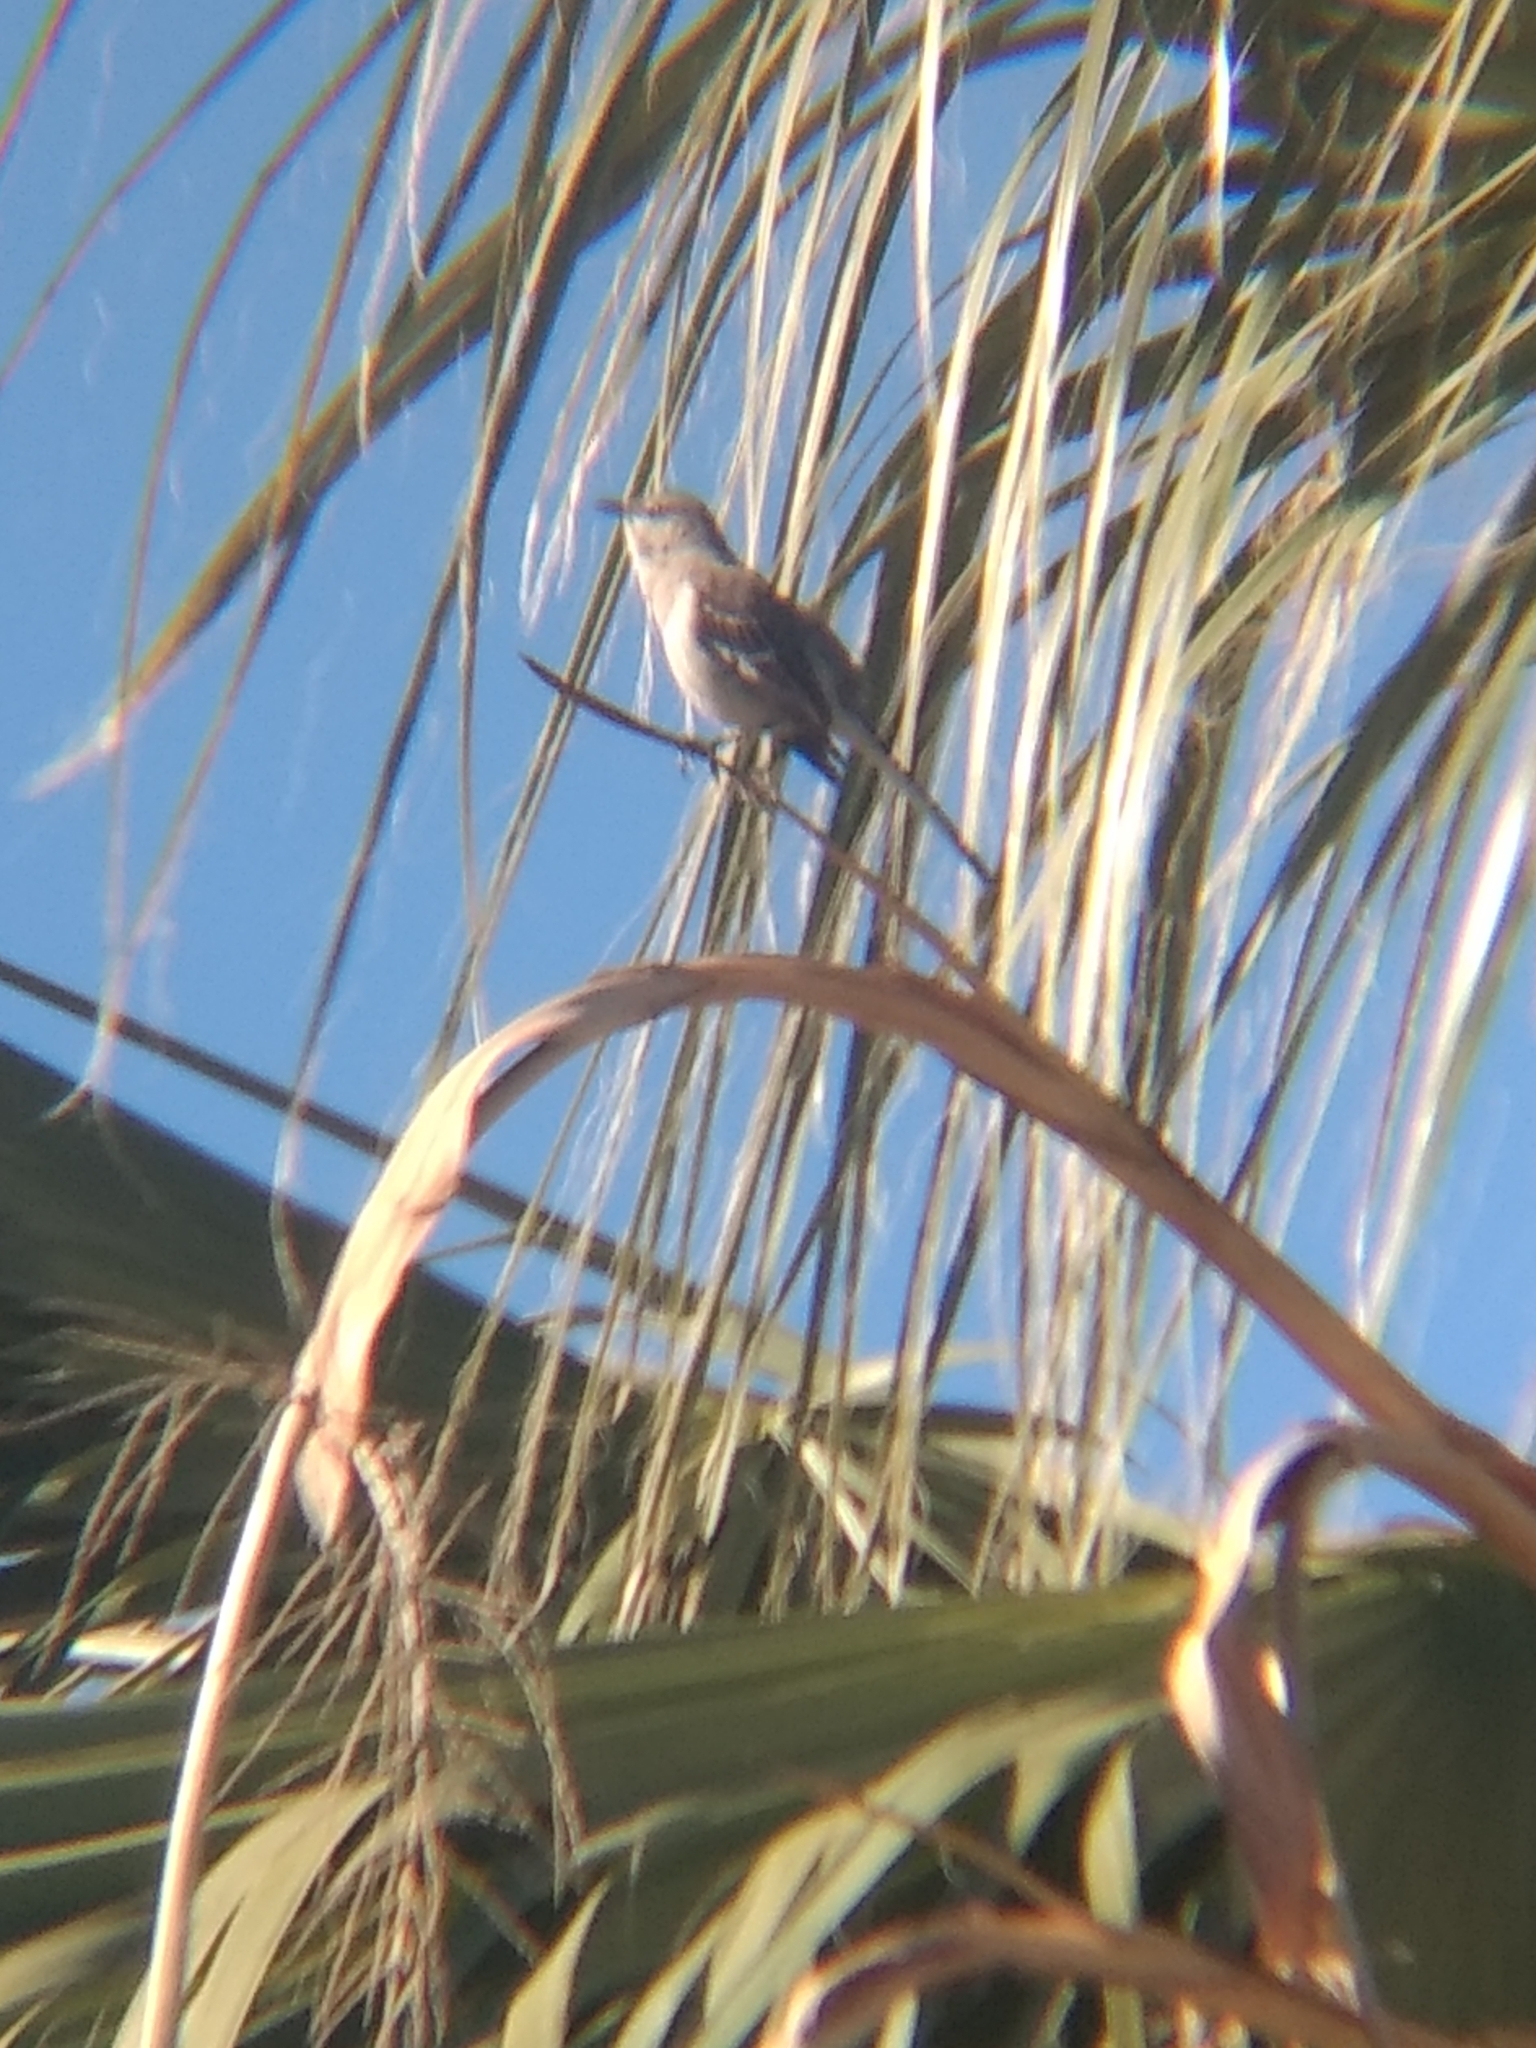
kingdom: Animalia
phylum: Chordata
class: Aves
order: Passeriformes
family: Mimidae
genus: Mimus
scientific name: Mimus polyglottos
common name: Northern mockingbird
